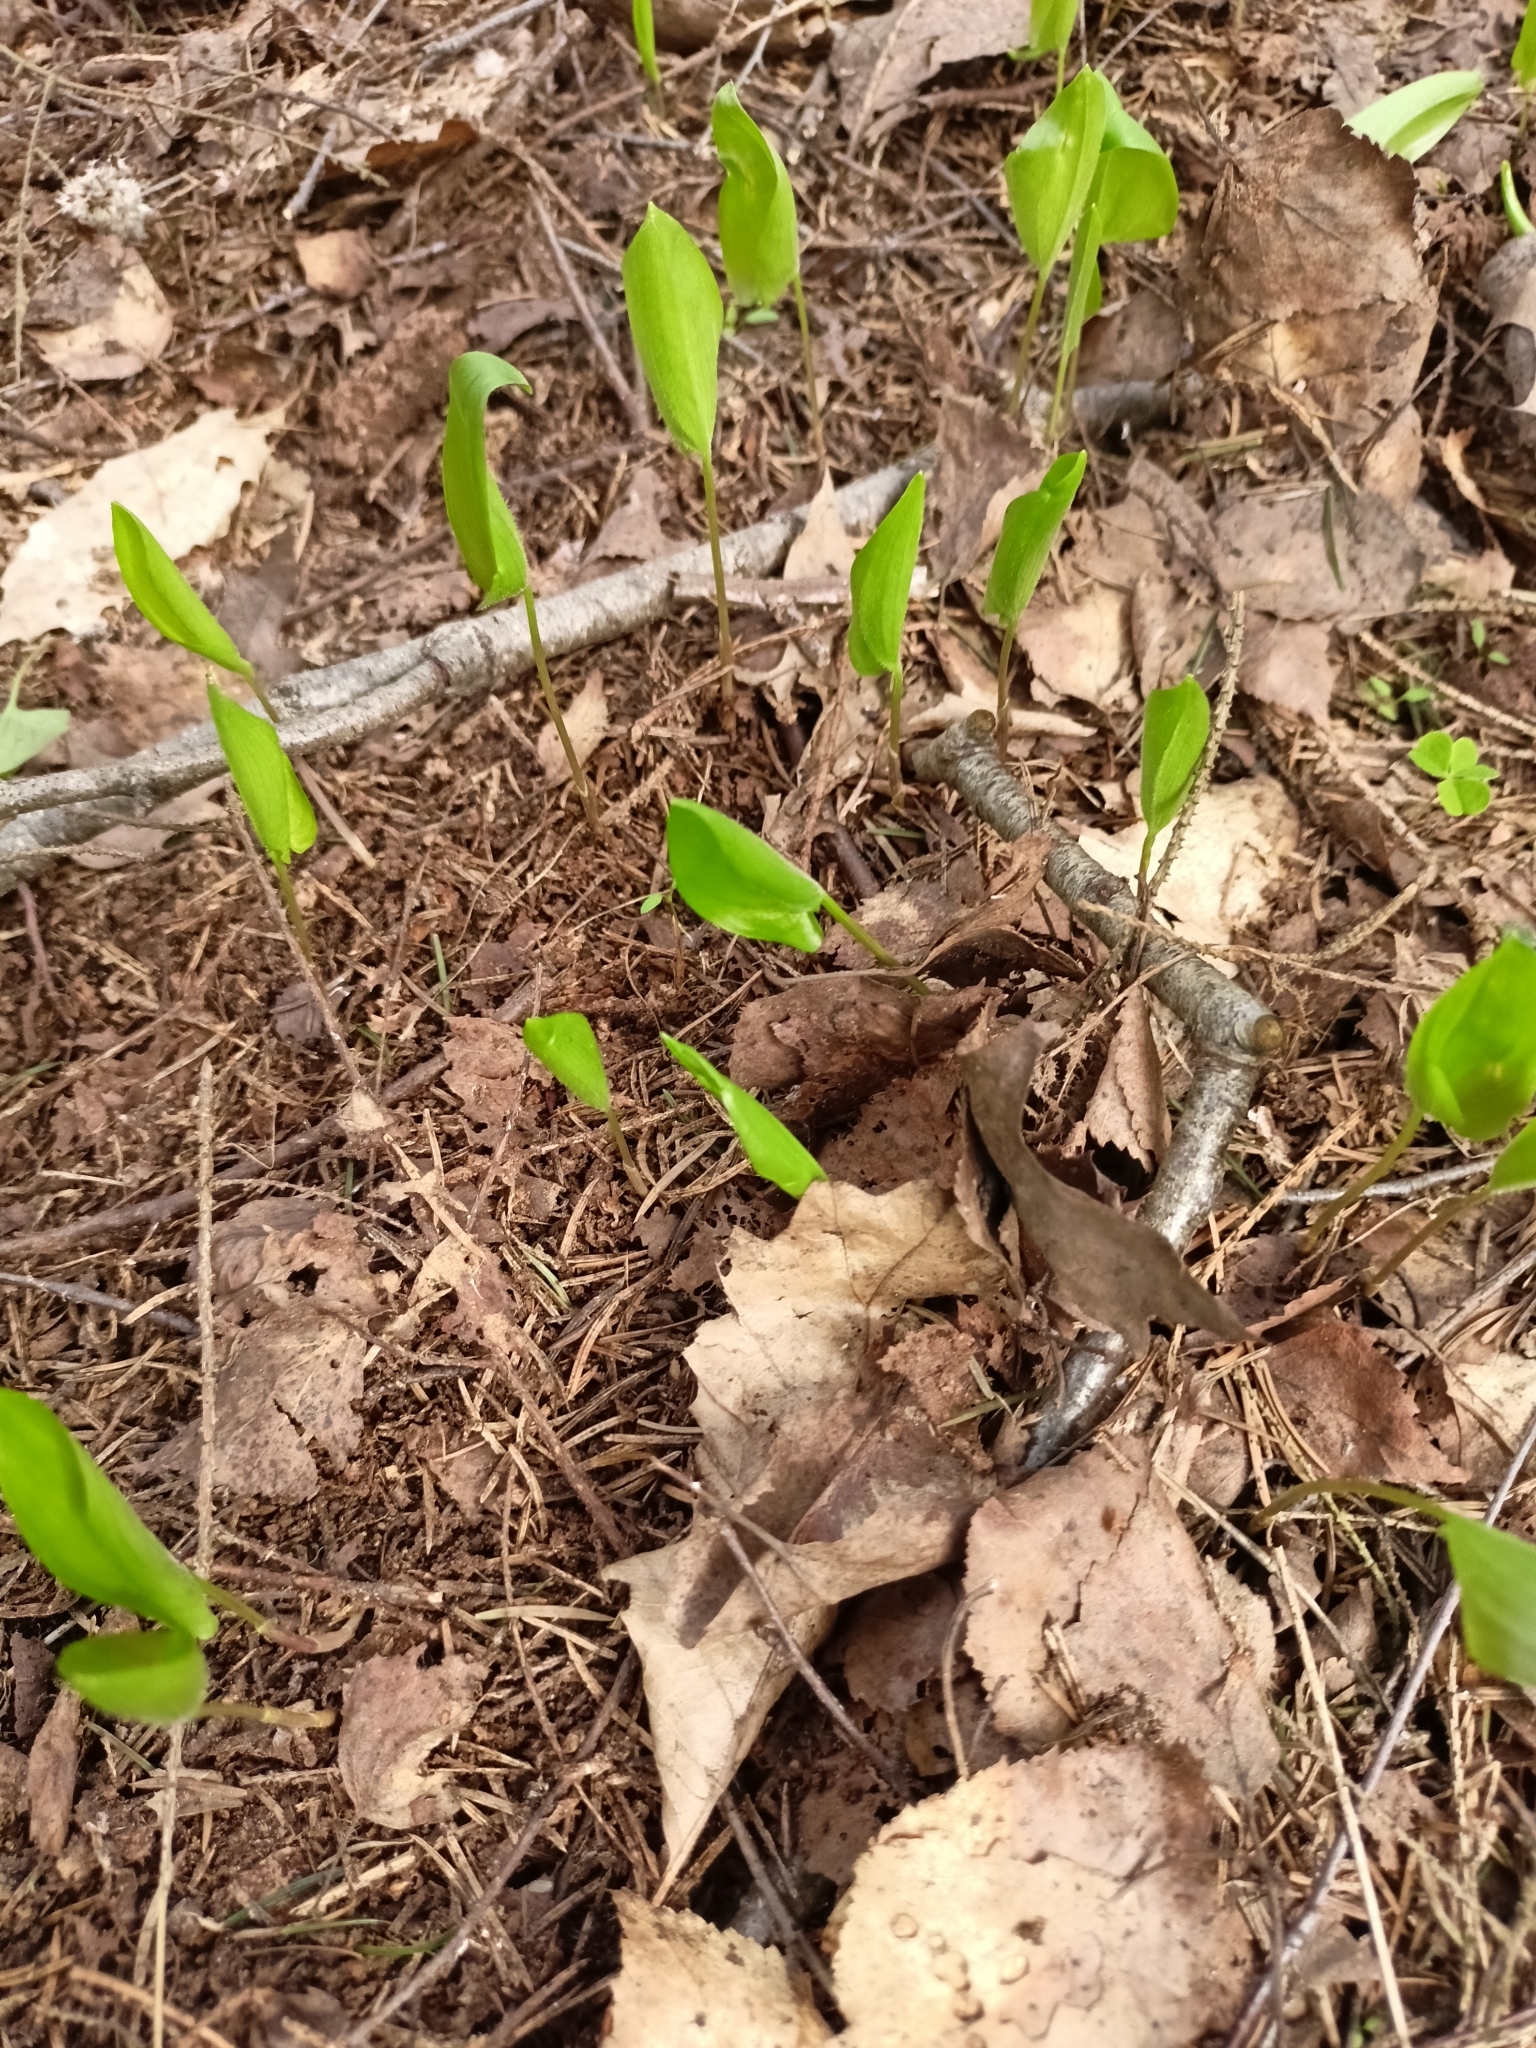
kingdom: Plantae
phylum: Tracheophyta
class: Liliopsida
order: Asparagales
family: Asparagaceae
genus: Maianthemum
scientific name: Maianthemum bifolium
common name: May lily
